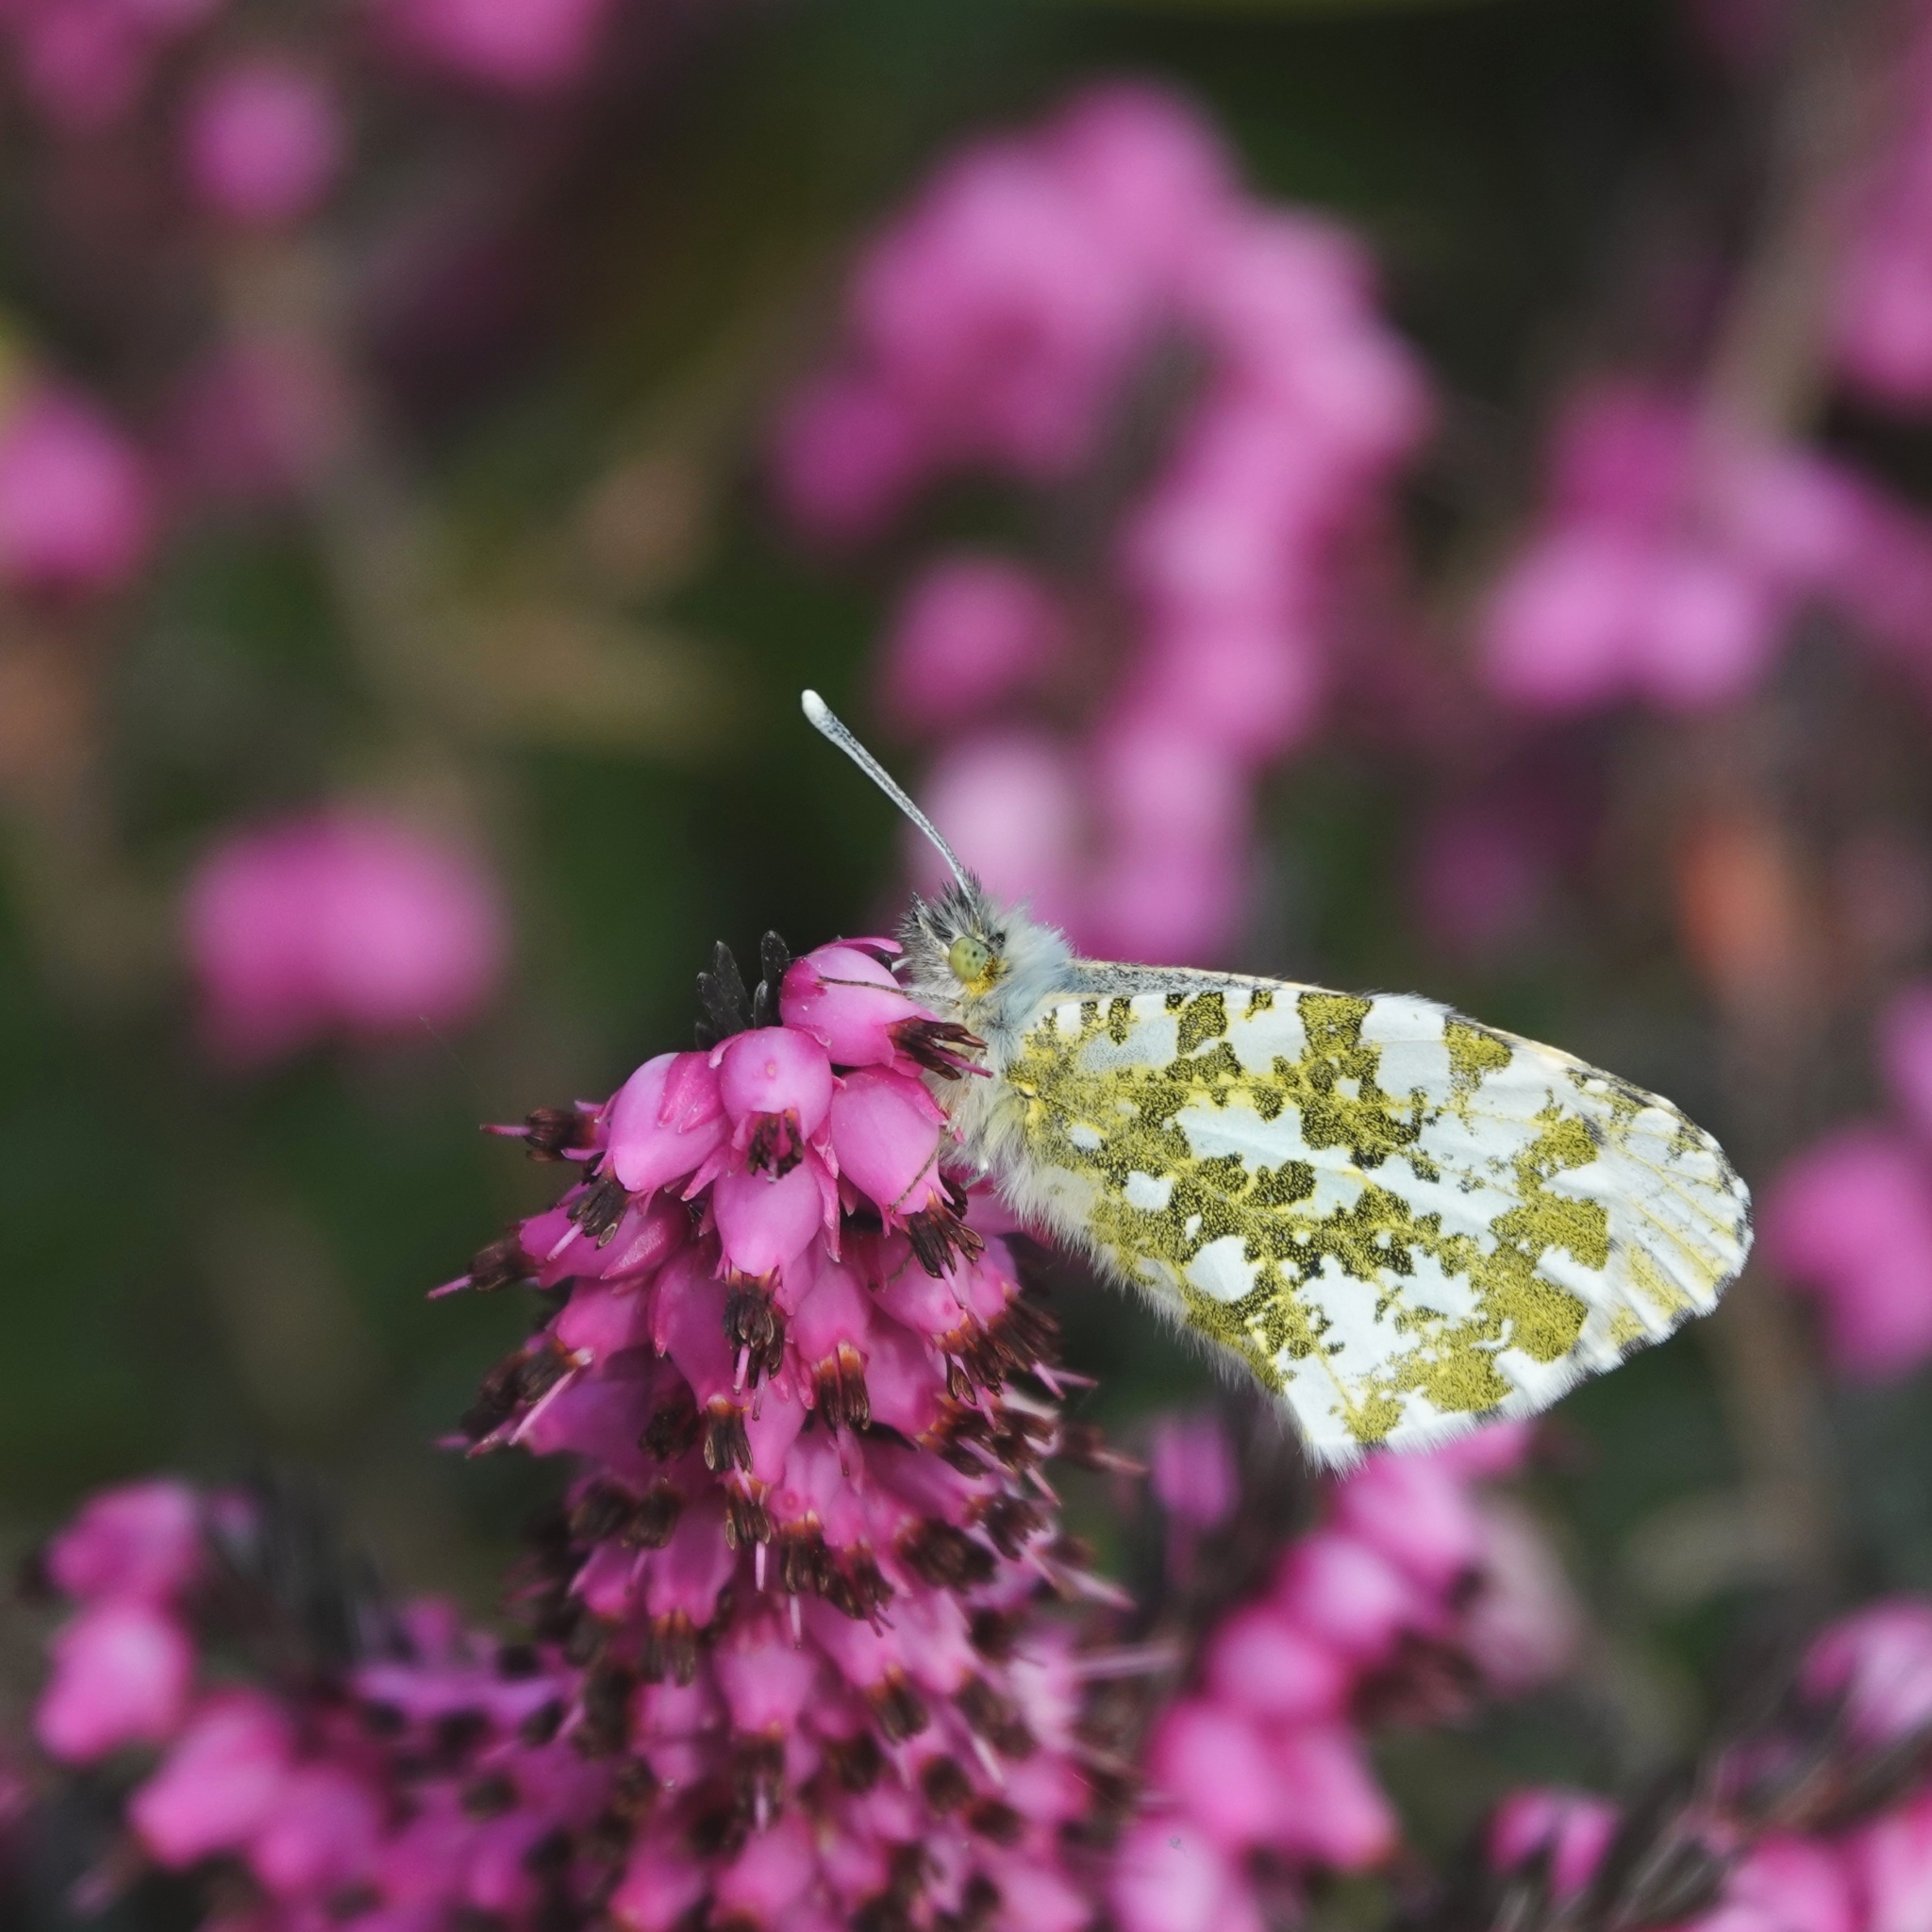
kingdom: Animalia
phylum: Arthropoda
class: Insecta
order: Lepidoptera
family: Pieridae
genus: Anthocharis
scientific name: Anthocharis cardamines
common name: Orange-tip
